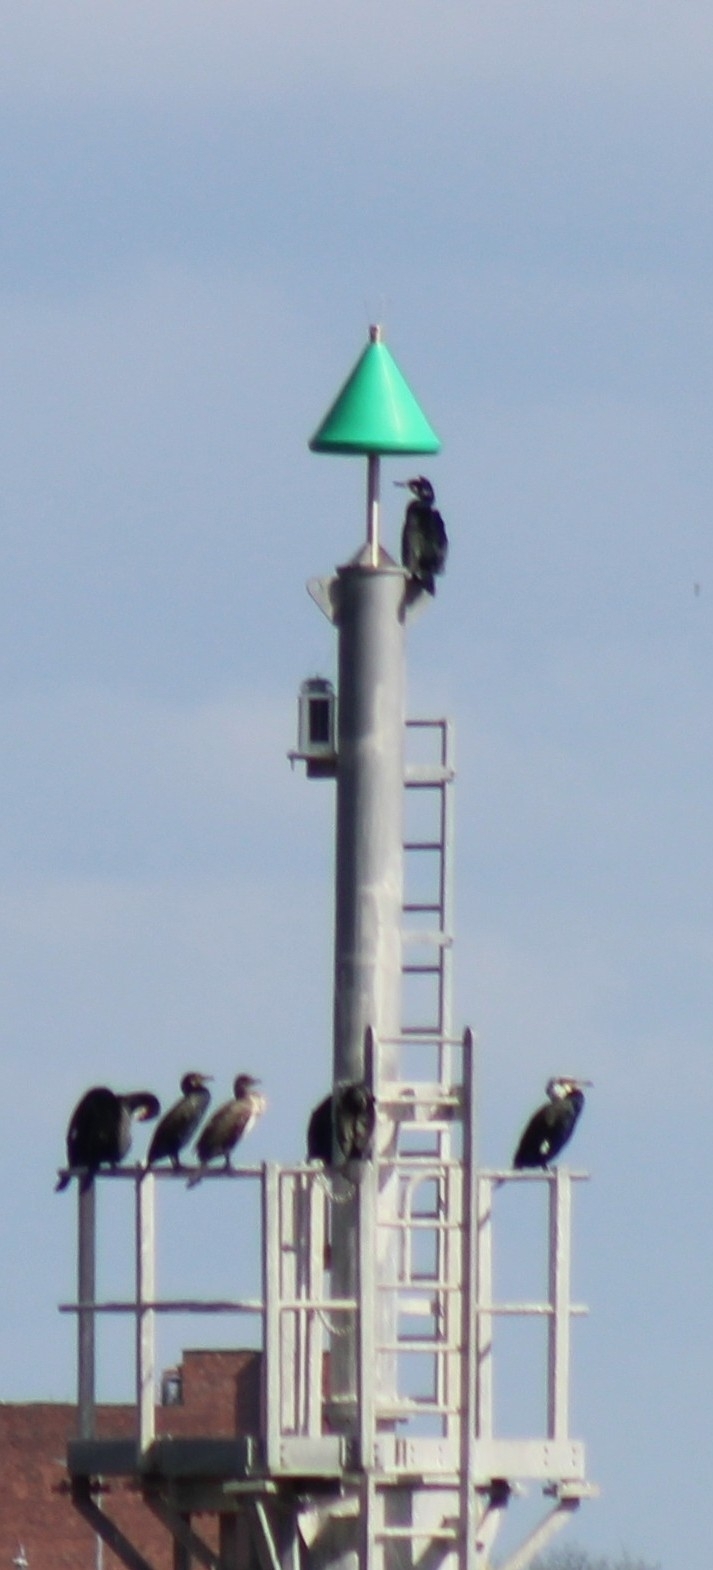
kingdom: Animalia
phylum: Chordata
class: Aves
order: Suliformes
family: Phalacrocoracidae
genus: Phalacrocorax
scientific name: Phalacrocorax carbo
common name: Great cormorant
